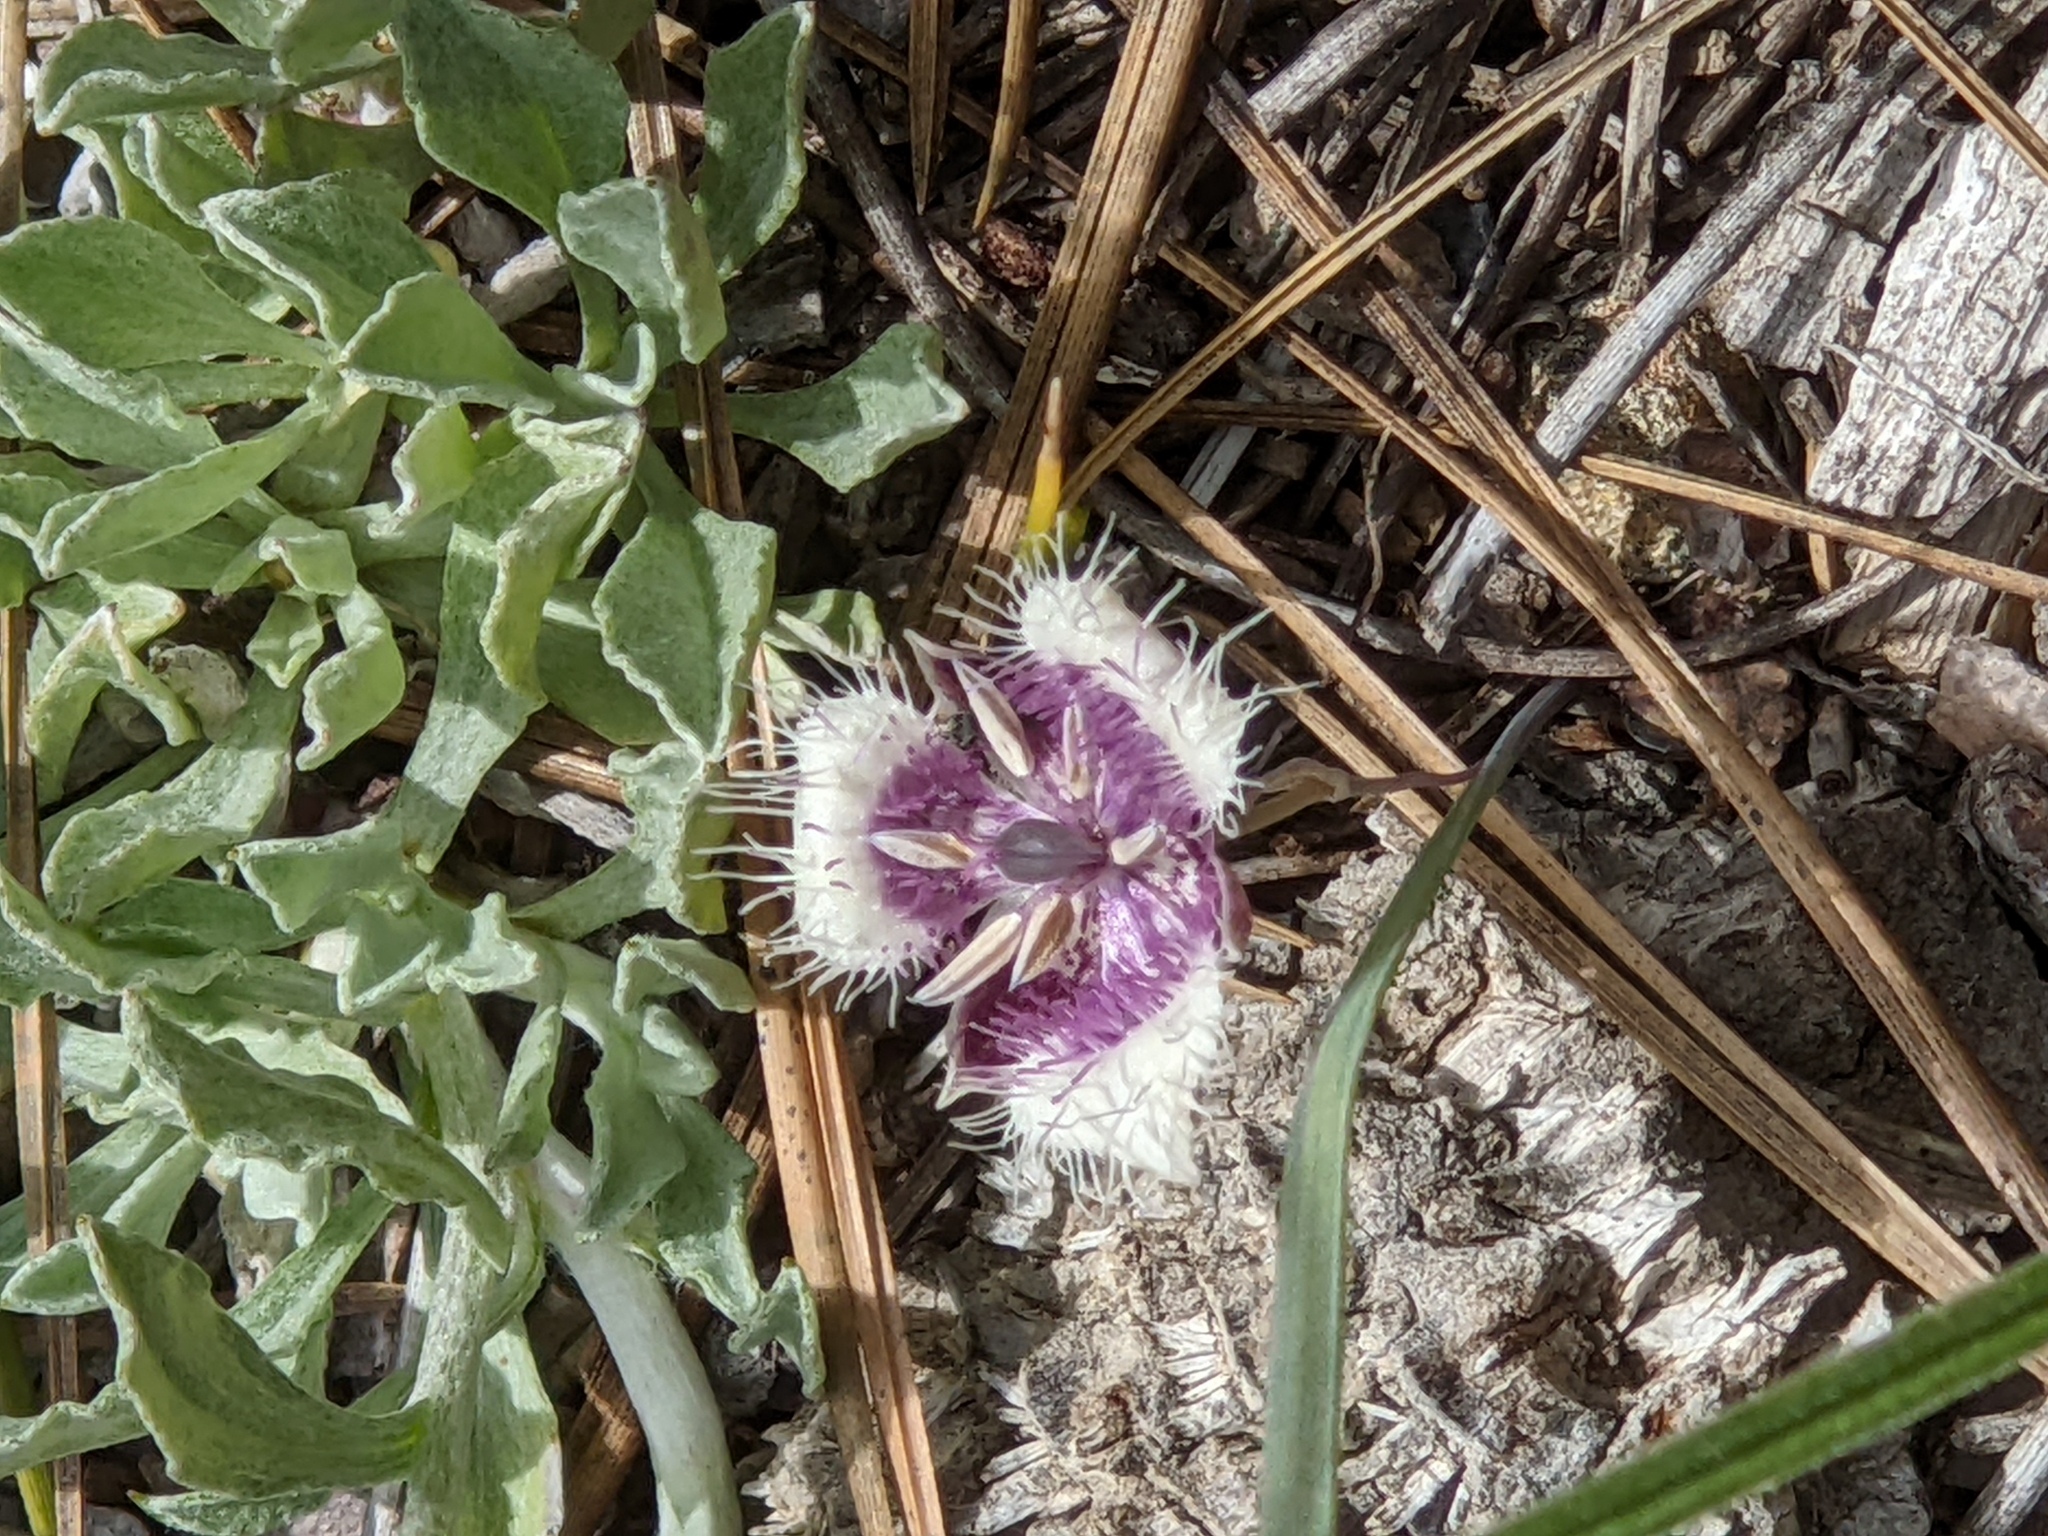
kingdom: Plantae
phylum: Tracheophyta
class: Liliopsida
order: Liliales
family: Liliaceae
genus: Calochortus
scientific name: Calochortus elegans
